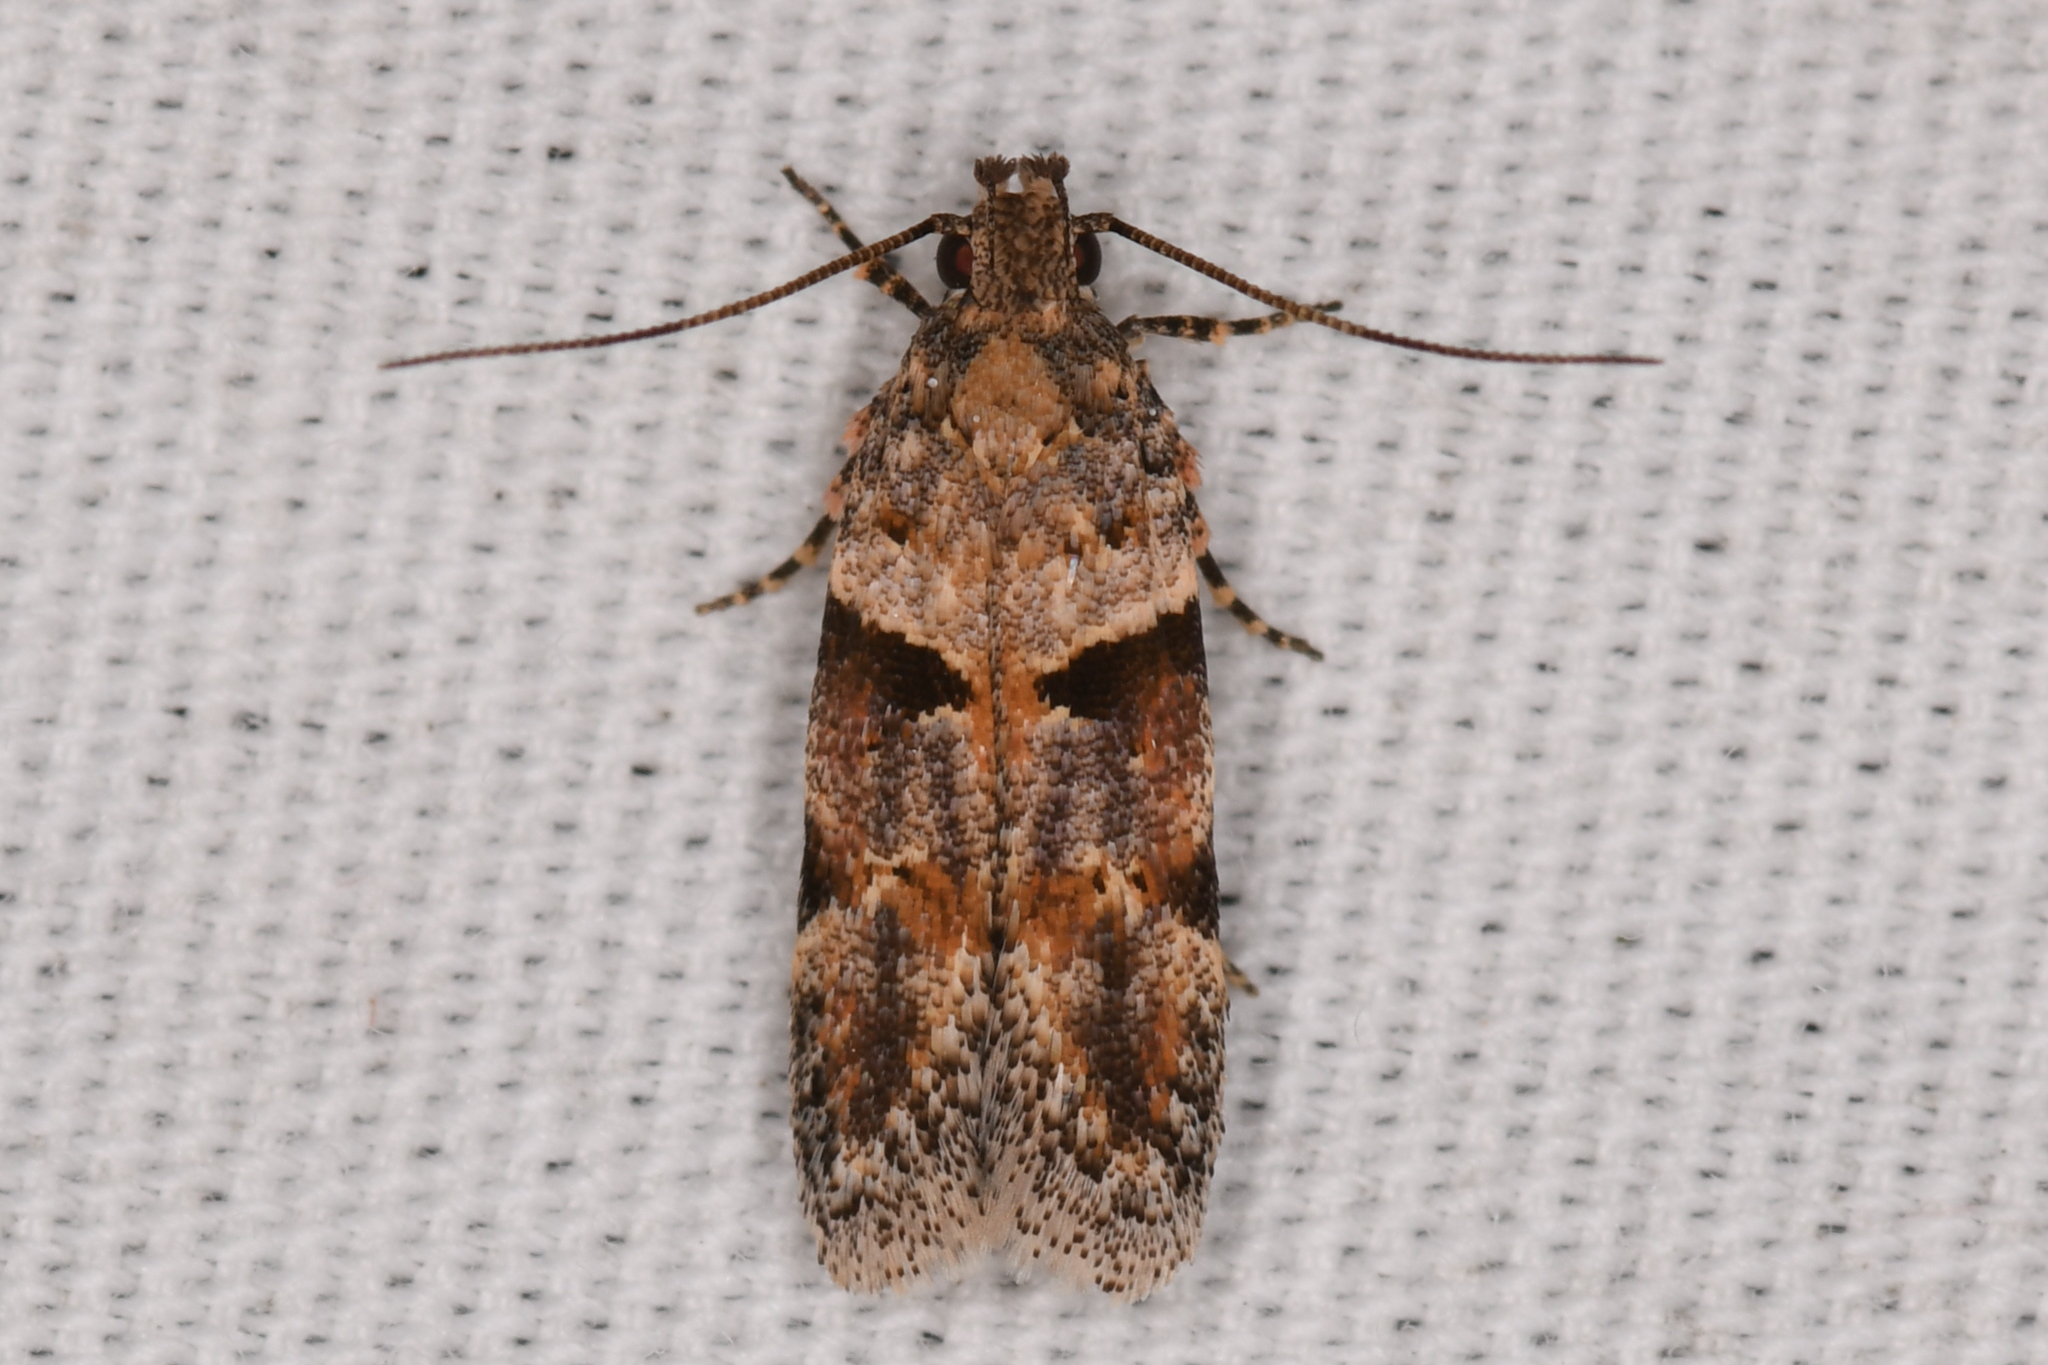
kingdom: Animalia
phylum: Arthropoda
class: Insecta
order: Lepidoptera
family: Gelechiidae
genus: Faculta
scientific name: Faculta inaequalis
